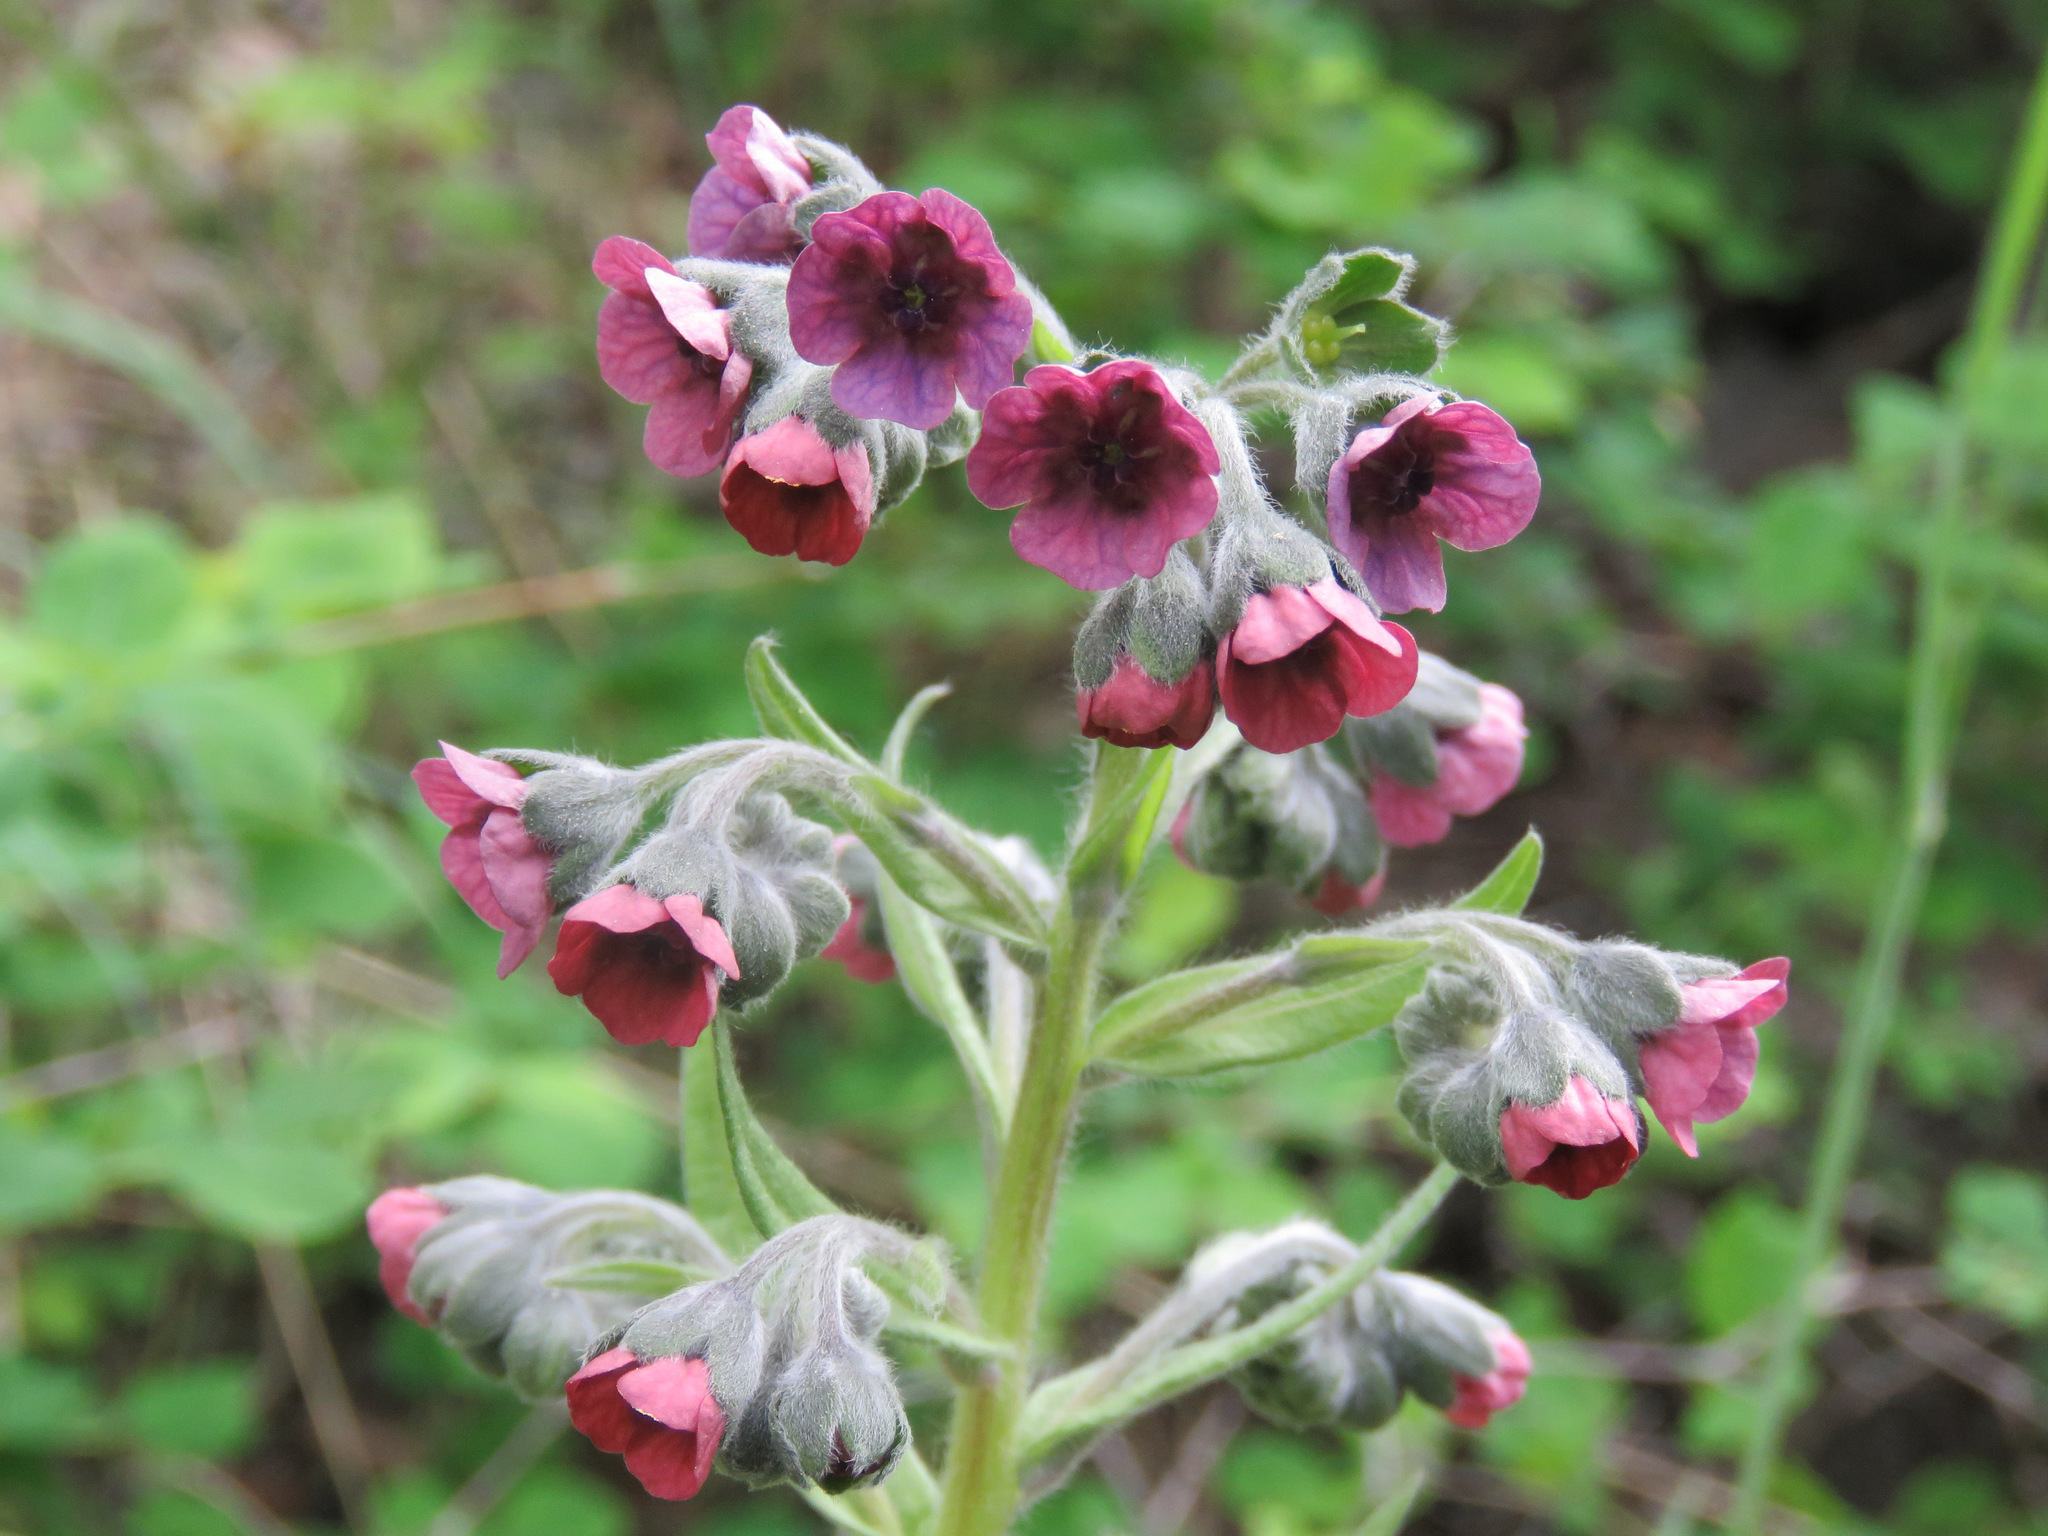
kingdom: Plantae
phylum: Tracheophyta
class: Magnoliopsida
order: Boraginales
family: Boraginaceae
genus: Cynoglossum
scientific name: Cynoglossum officinale
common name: Hound's-tongue
